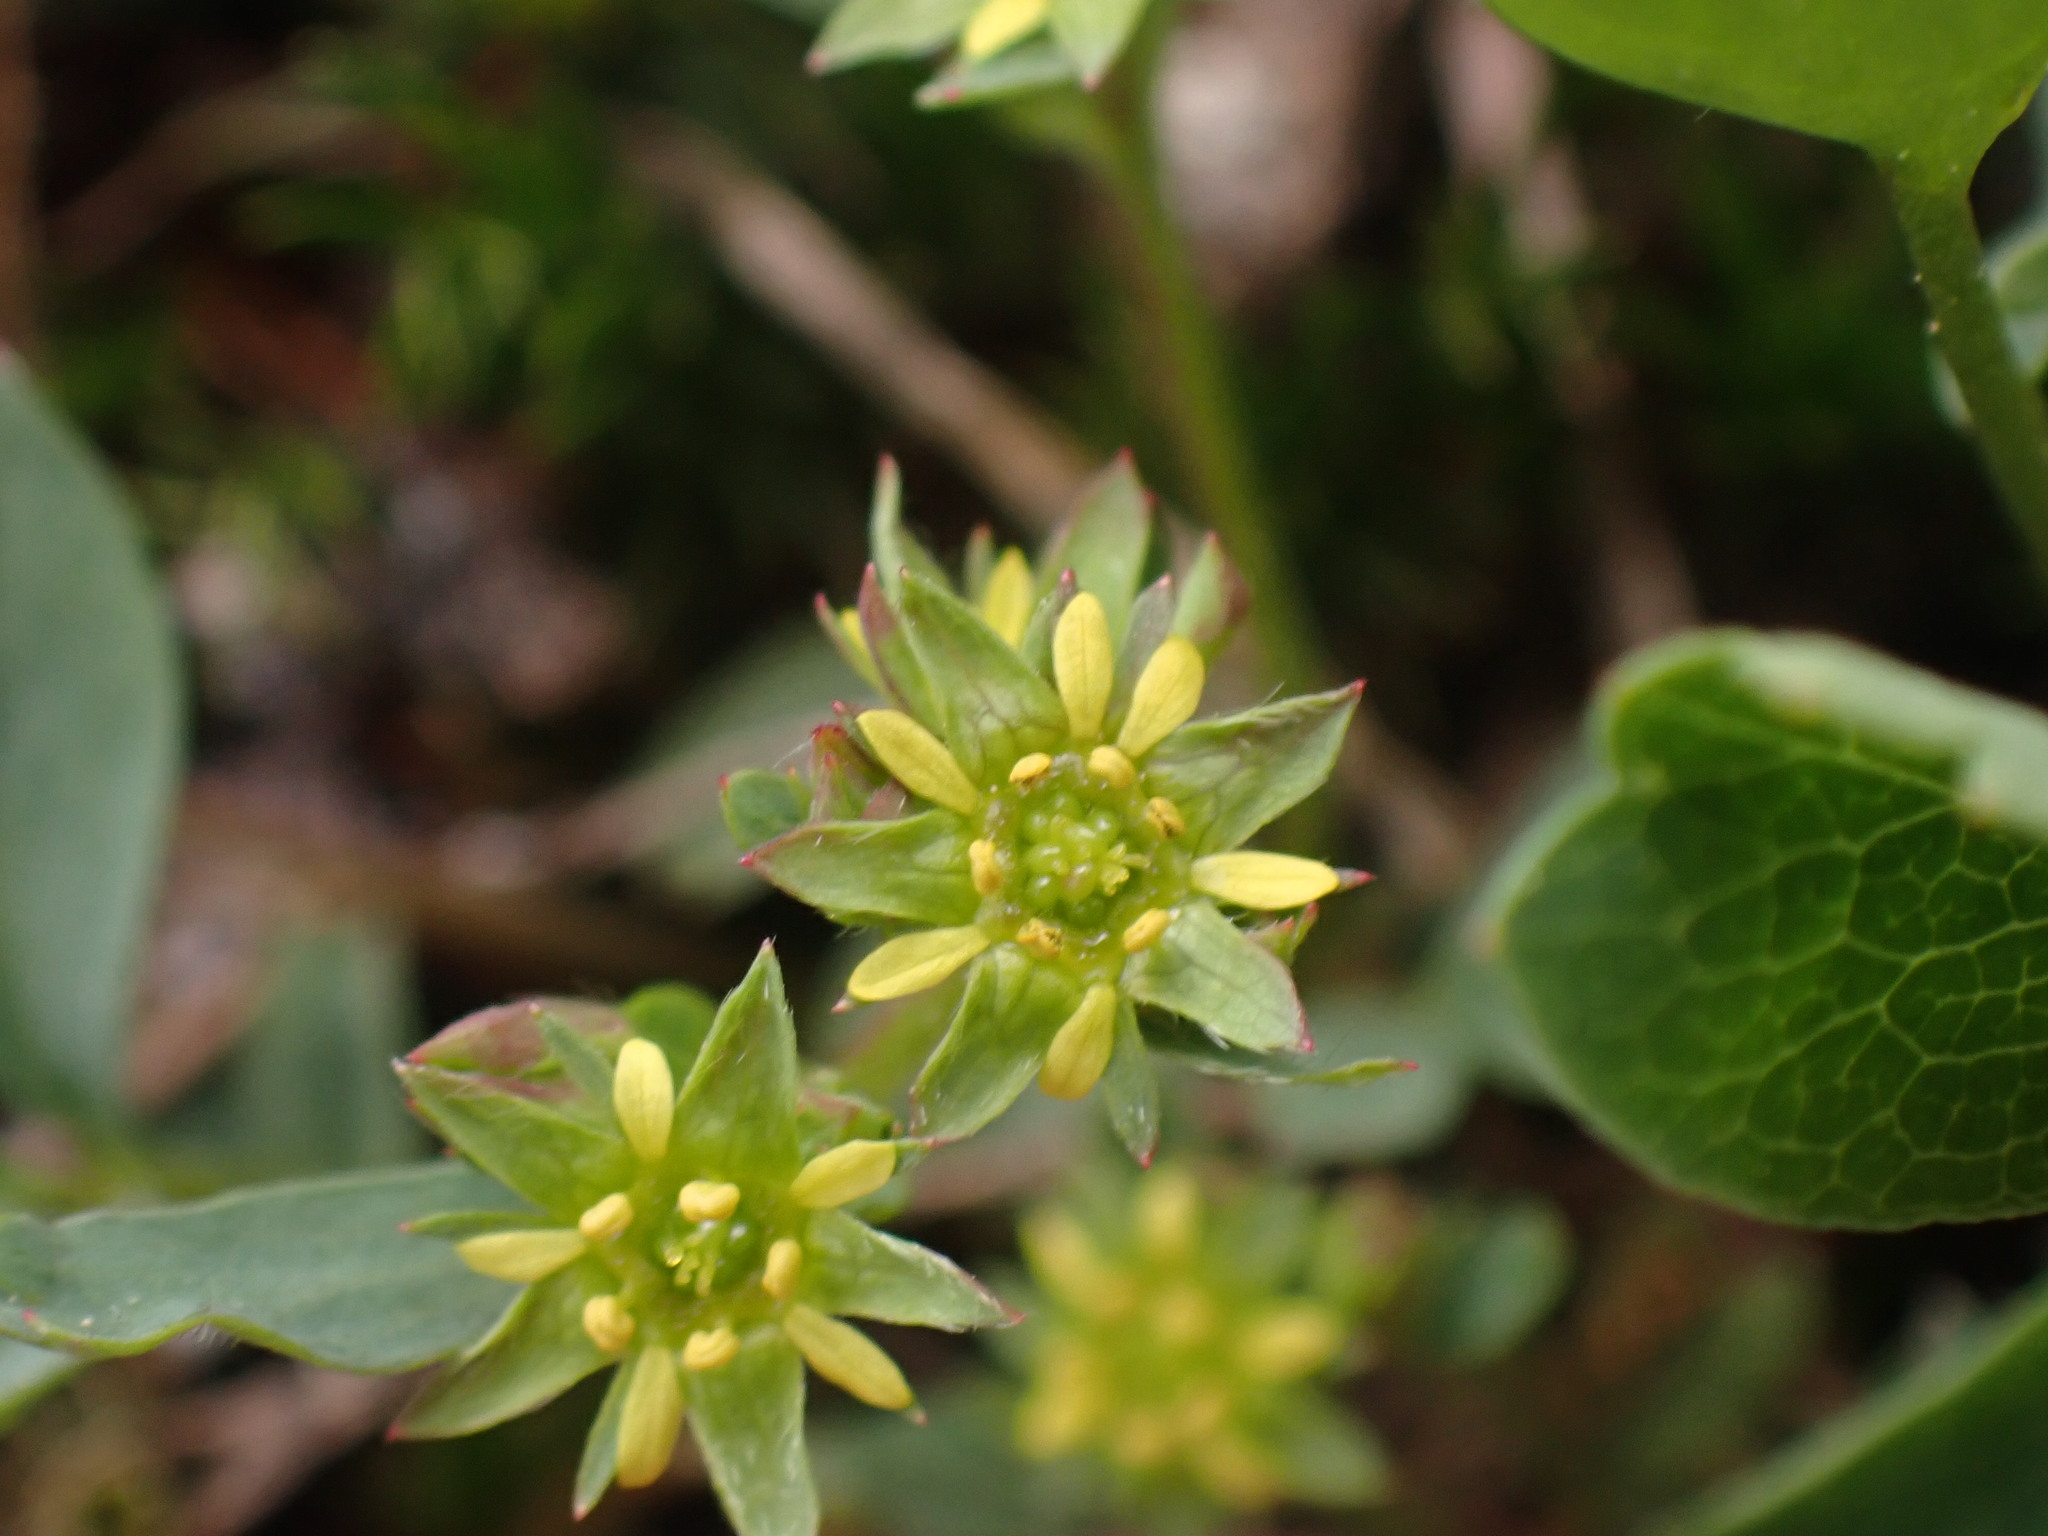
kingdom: Plantae
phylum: Tracheophyta
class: Magnoliopsida
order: Rosales
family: Rosaceae
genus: Sibbaldia
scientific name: Sibbaldia procumbens
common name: Creeping sibbaldia
